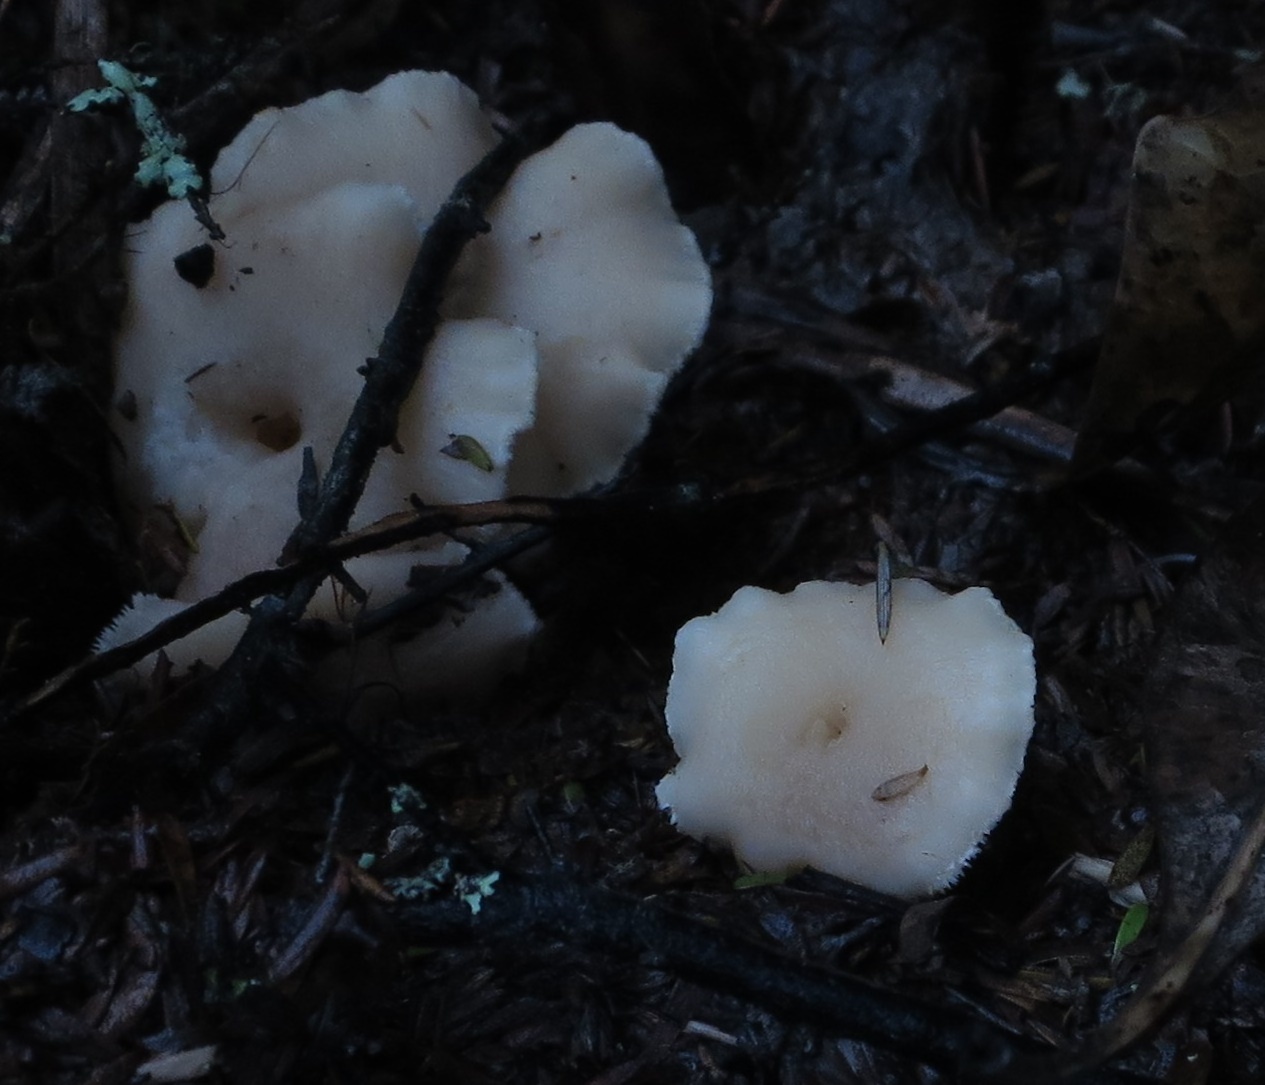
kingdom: Fungi
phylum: Basidiomycota
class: Agaricomycetes
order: Cantharellales
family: Hydnaceae
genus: Hydnum
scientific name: Hydnum ambustum
